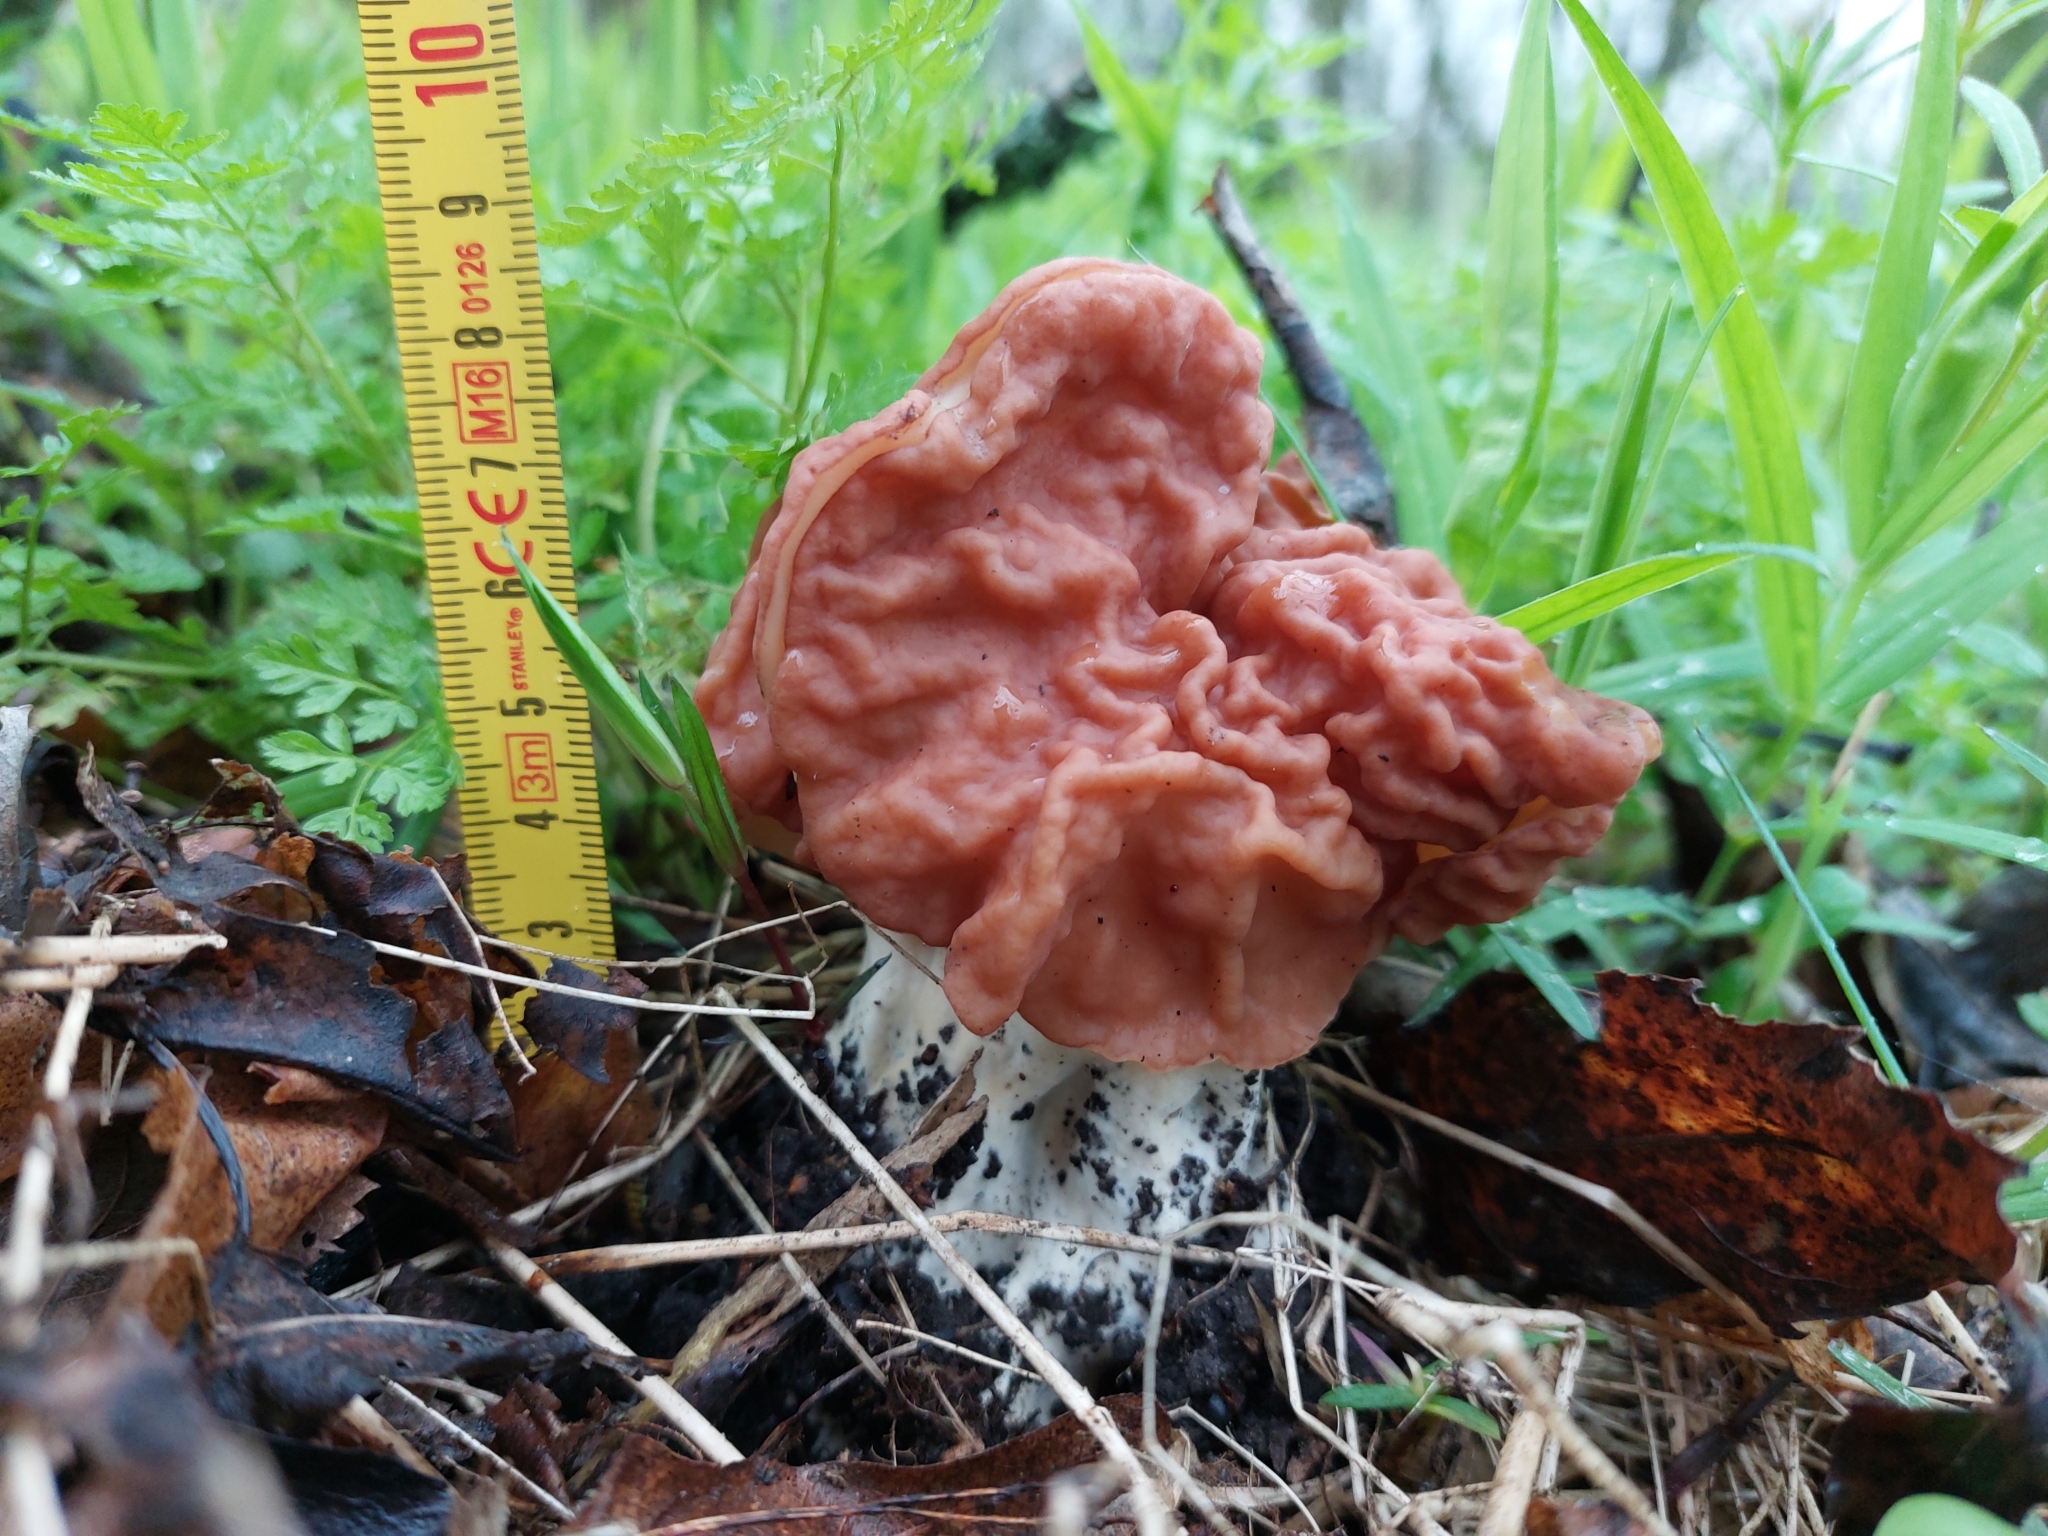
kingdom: Fungi
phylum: Ascomycota
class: Pezizomycetes
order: Pezizales
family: Discinaceae
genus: Discina
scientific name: Discina fastigiata
